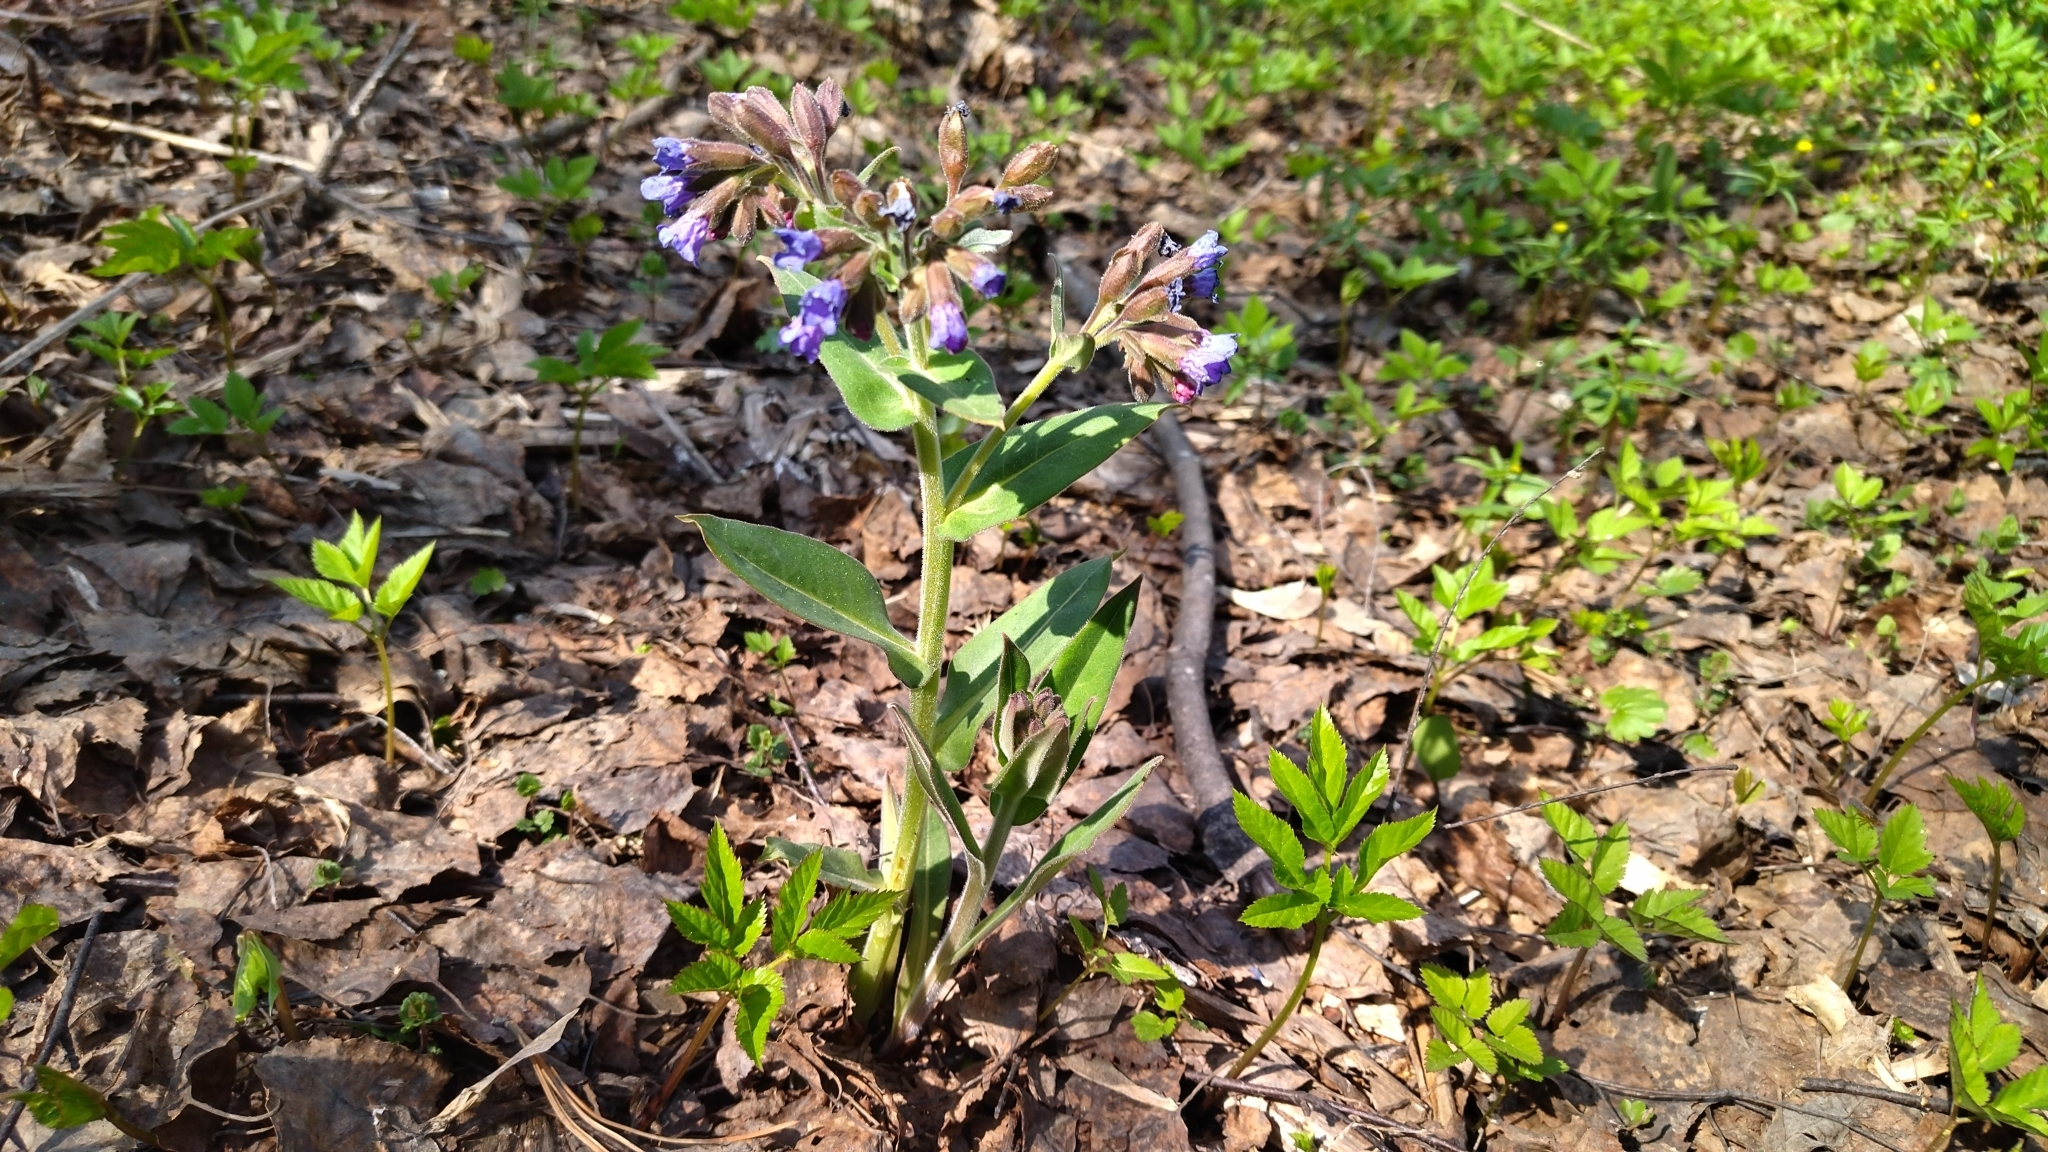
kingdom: Plantae
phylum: Tracheophyta
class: Magnoliopsida
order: Boraginales
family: Boraginaceae
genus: Pulmonaria
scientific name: Pulmonaria mollis
